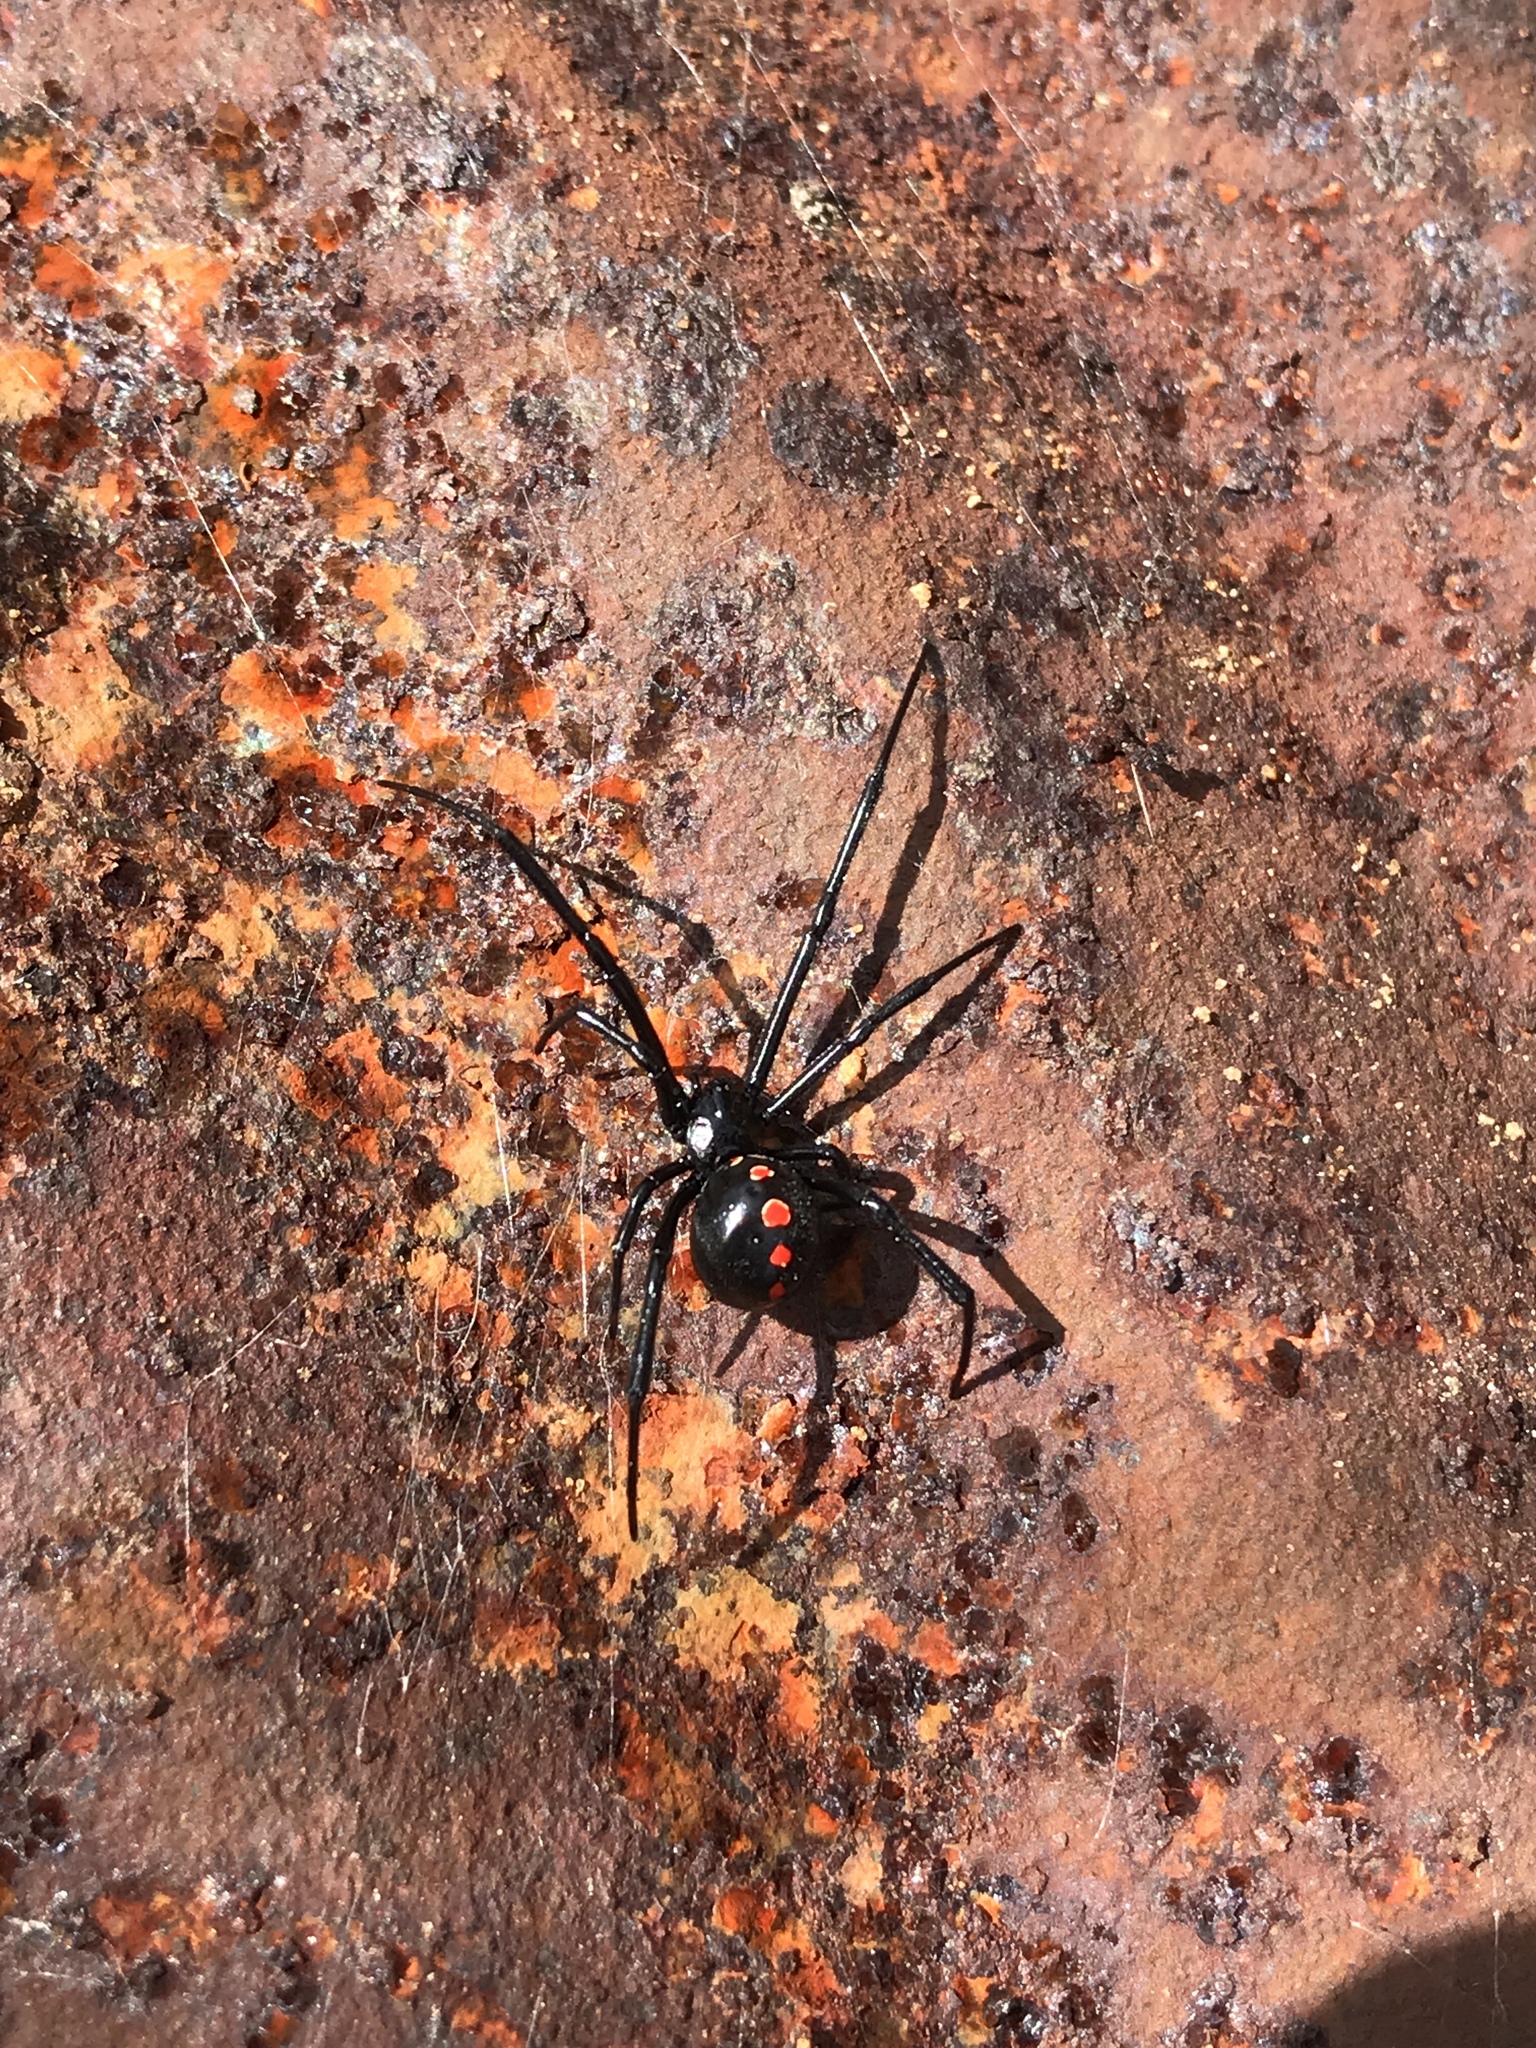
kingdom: Animalia
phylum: Arthropoda
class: Arachnida
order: Araneae
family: Theridiidae
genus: Latrodectus
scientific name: Latrodectus mactans
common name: Cobweb spiders
